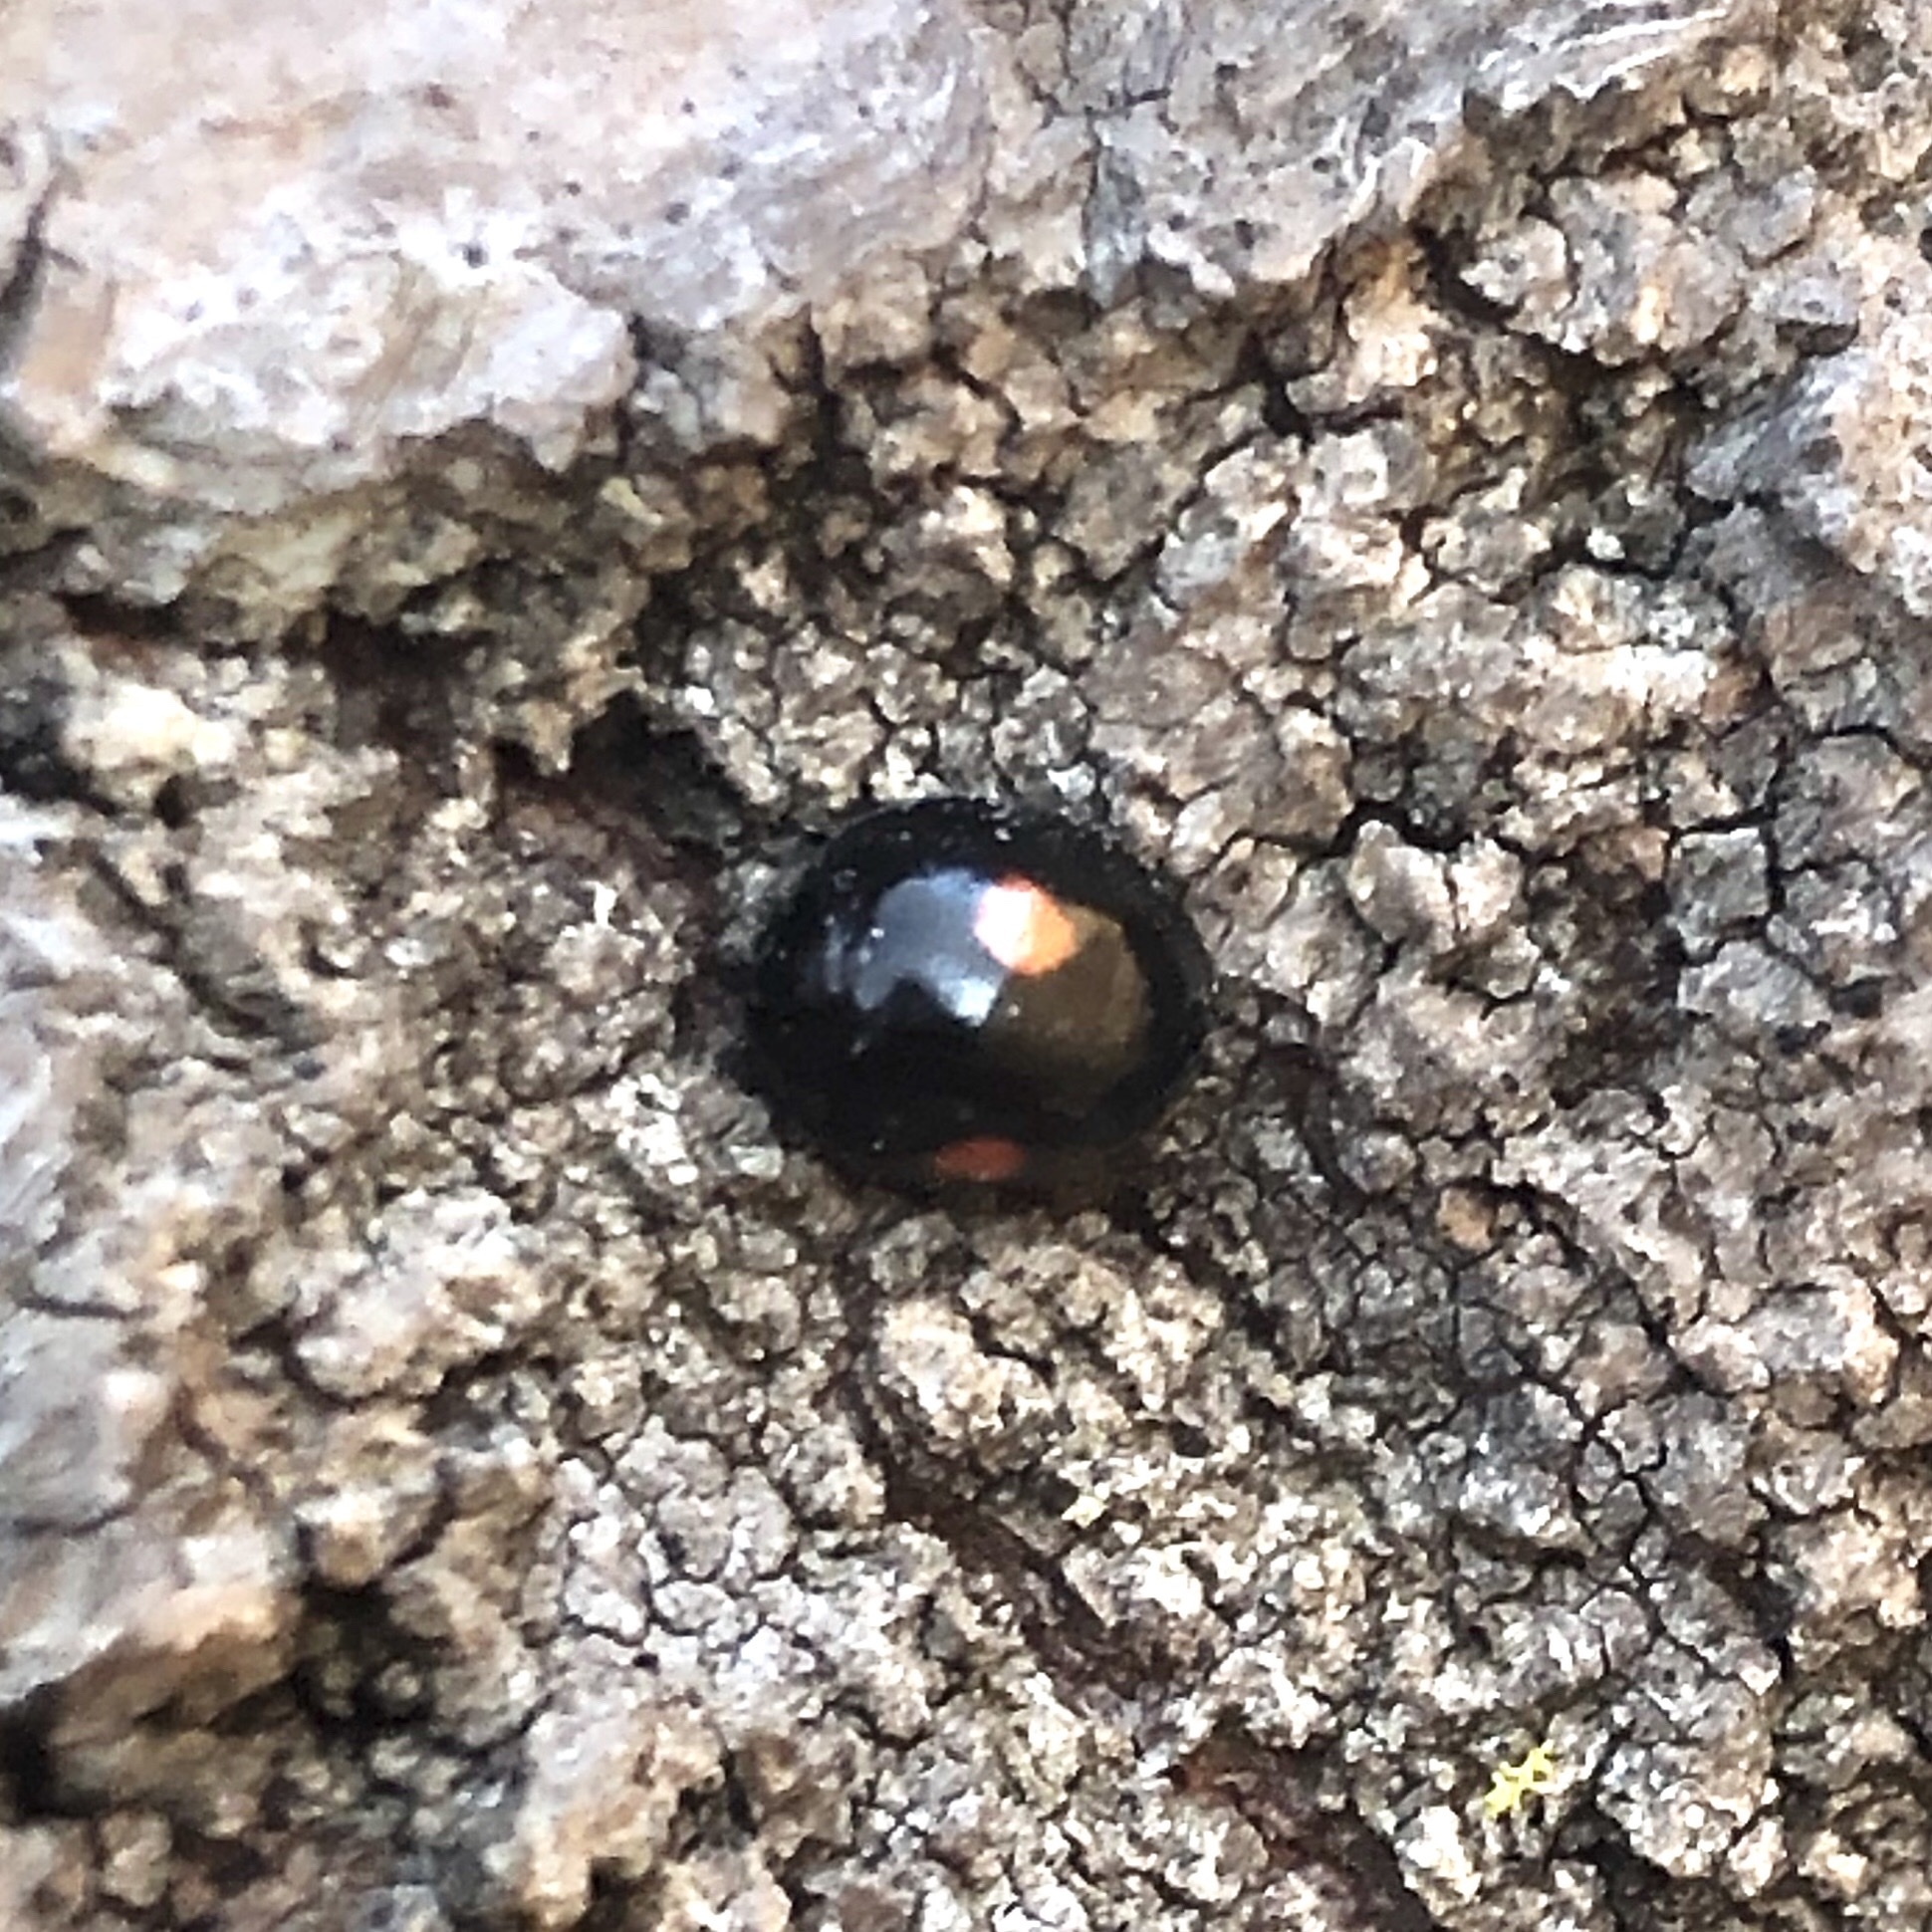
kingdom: Animalia
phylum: Arthropoda
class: Insecta
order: Coleoptera
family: Coccinellidae
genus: Chilocorus
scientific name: Chilocorus stigma
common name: Twicestabbed lady beetle
